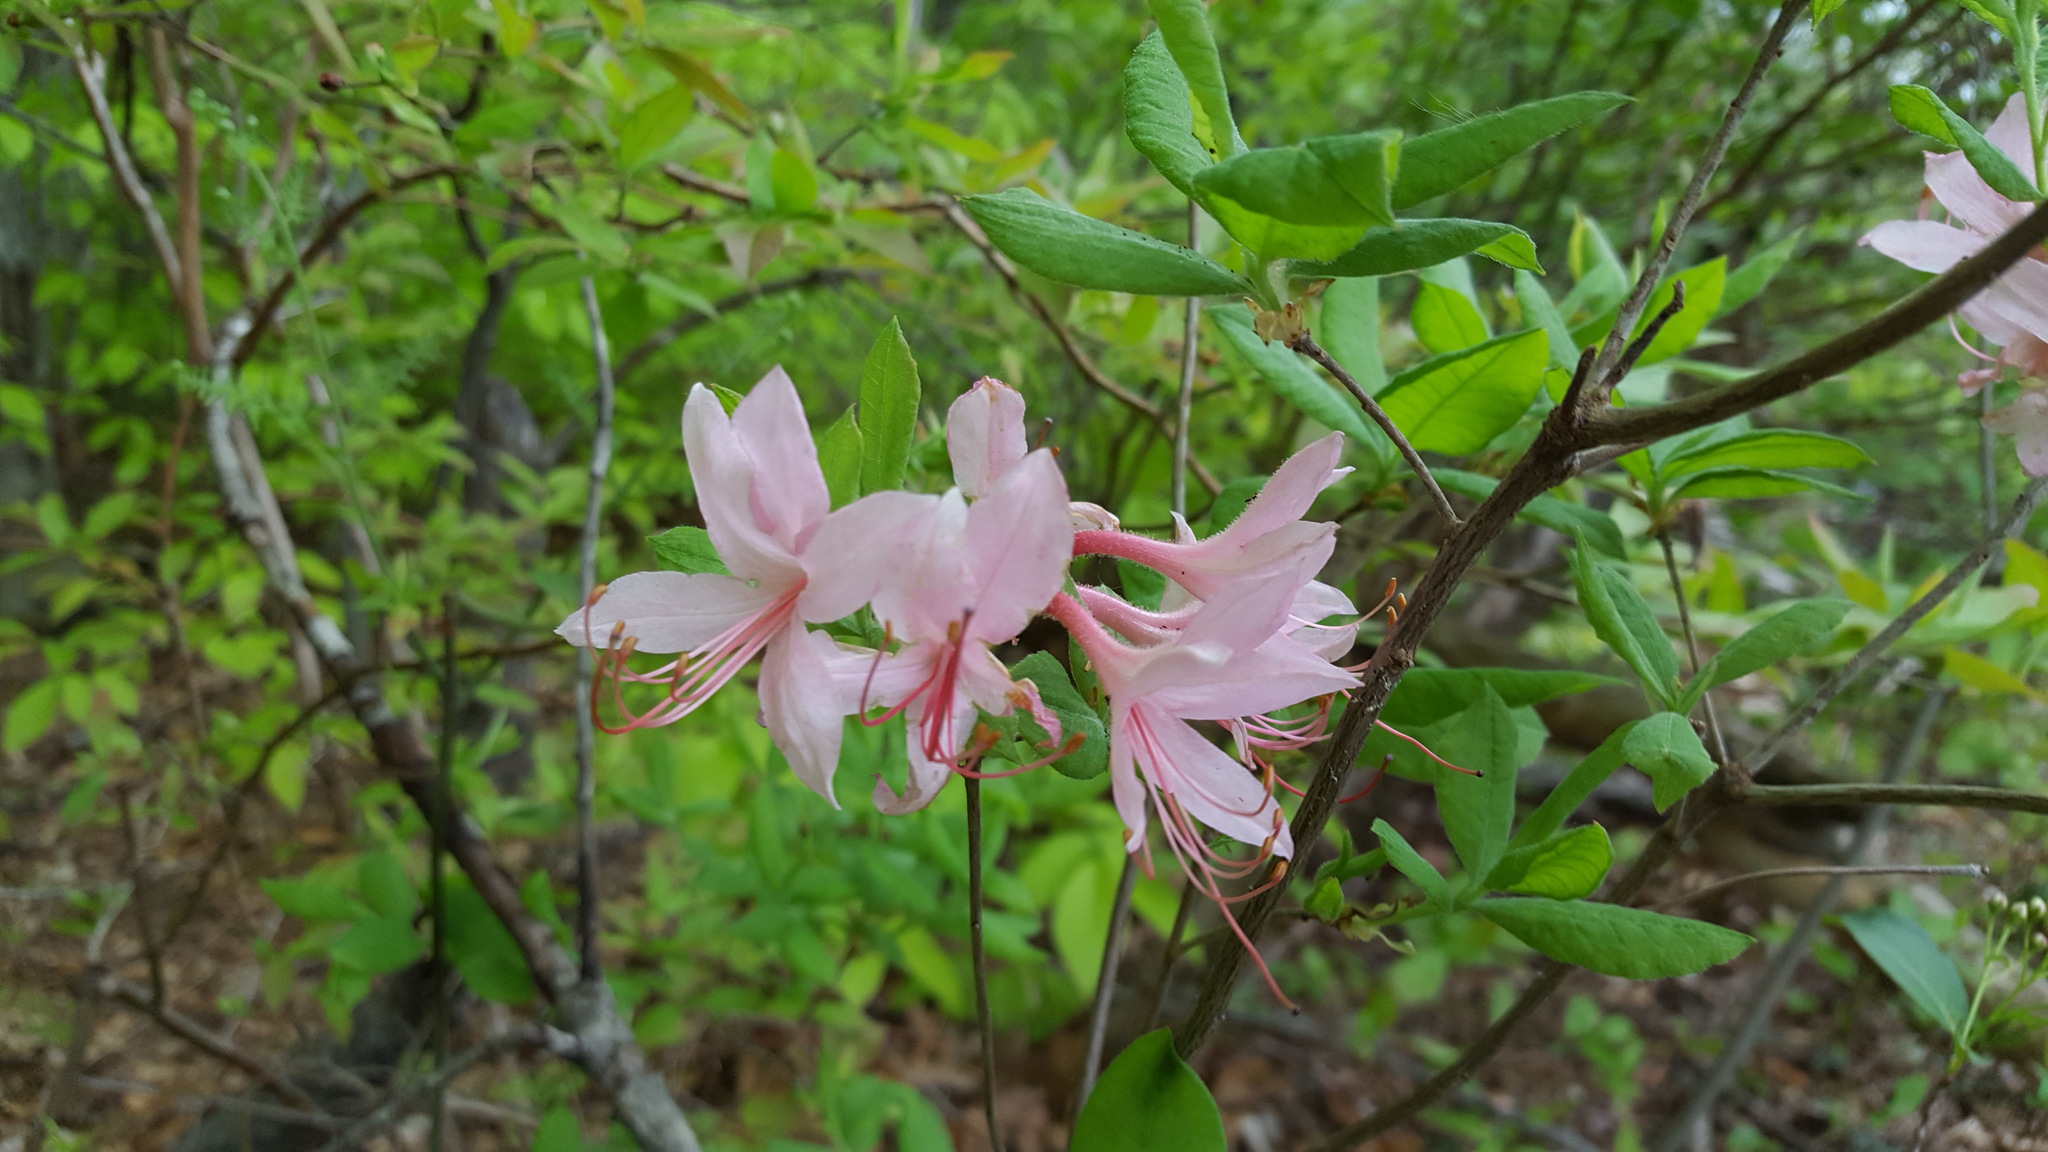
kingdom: Plantae
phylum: Tracheophyta
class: Magnoliopsida
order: Ericales
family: Ericaceae
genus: Rhododendron
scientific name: Rhododendron roseum
